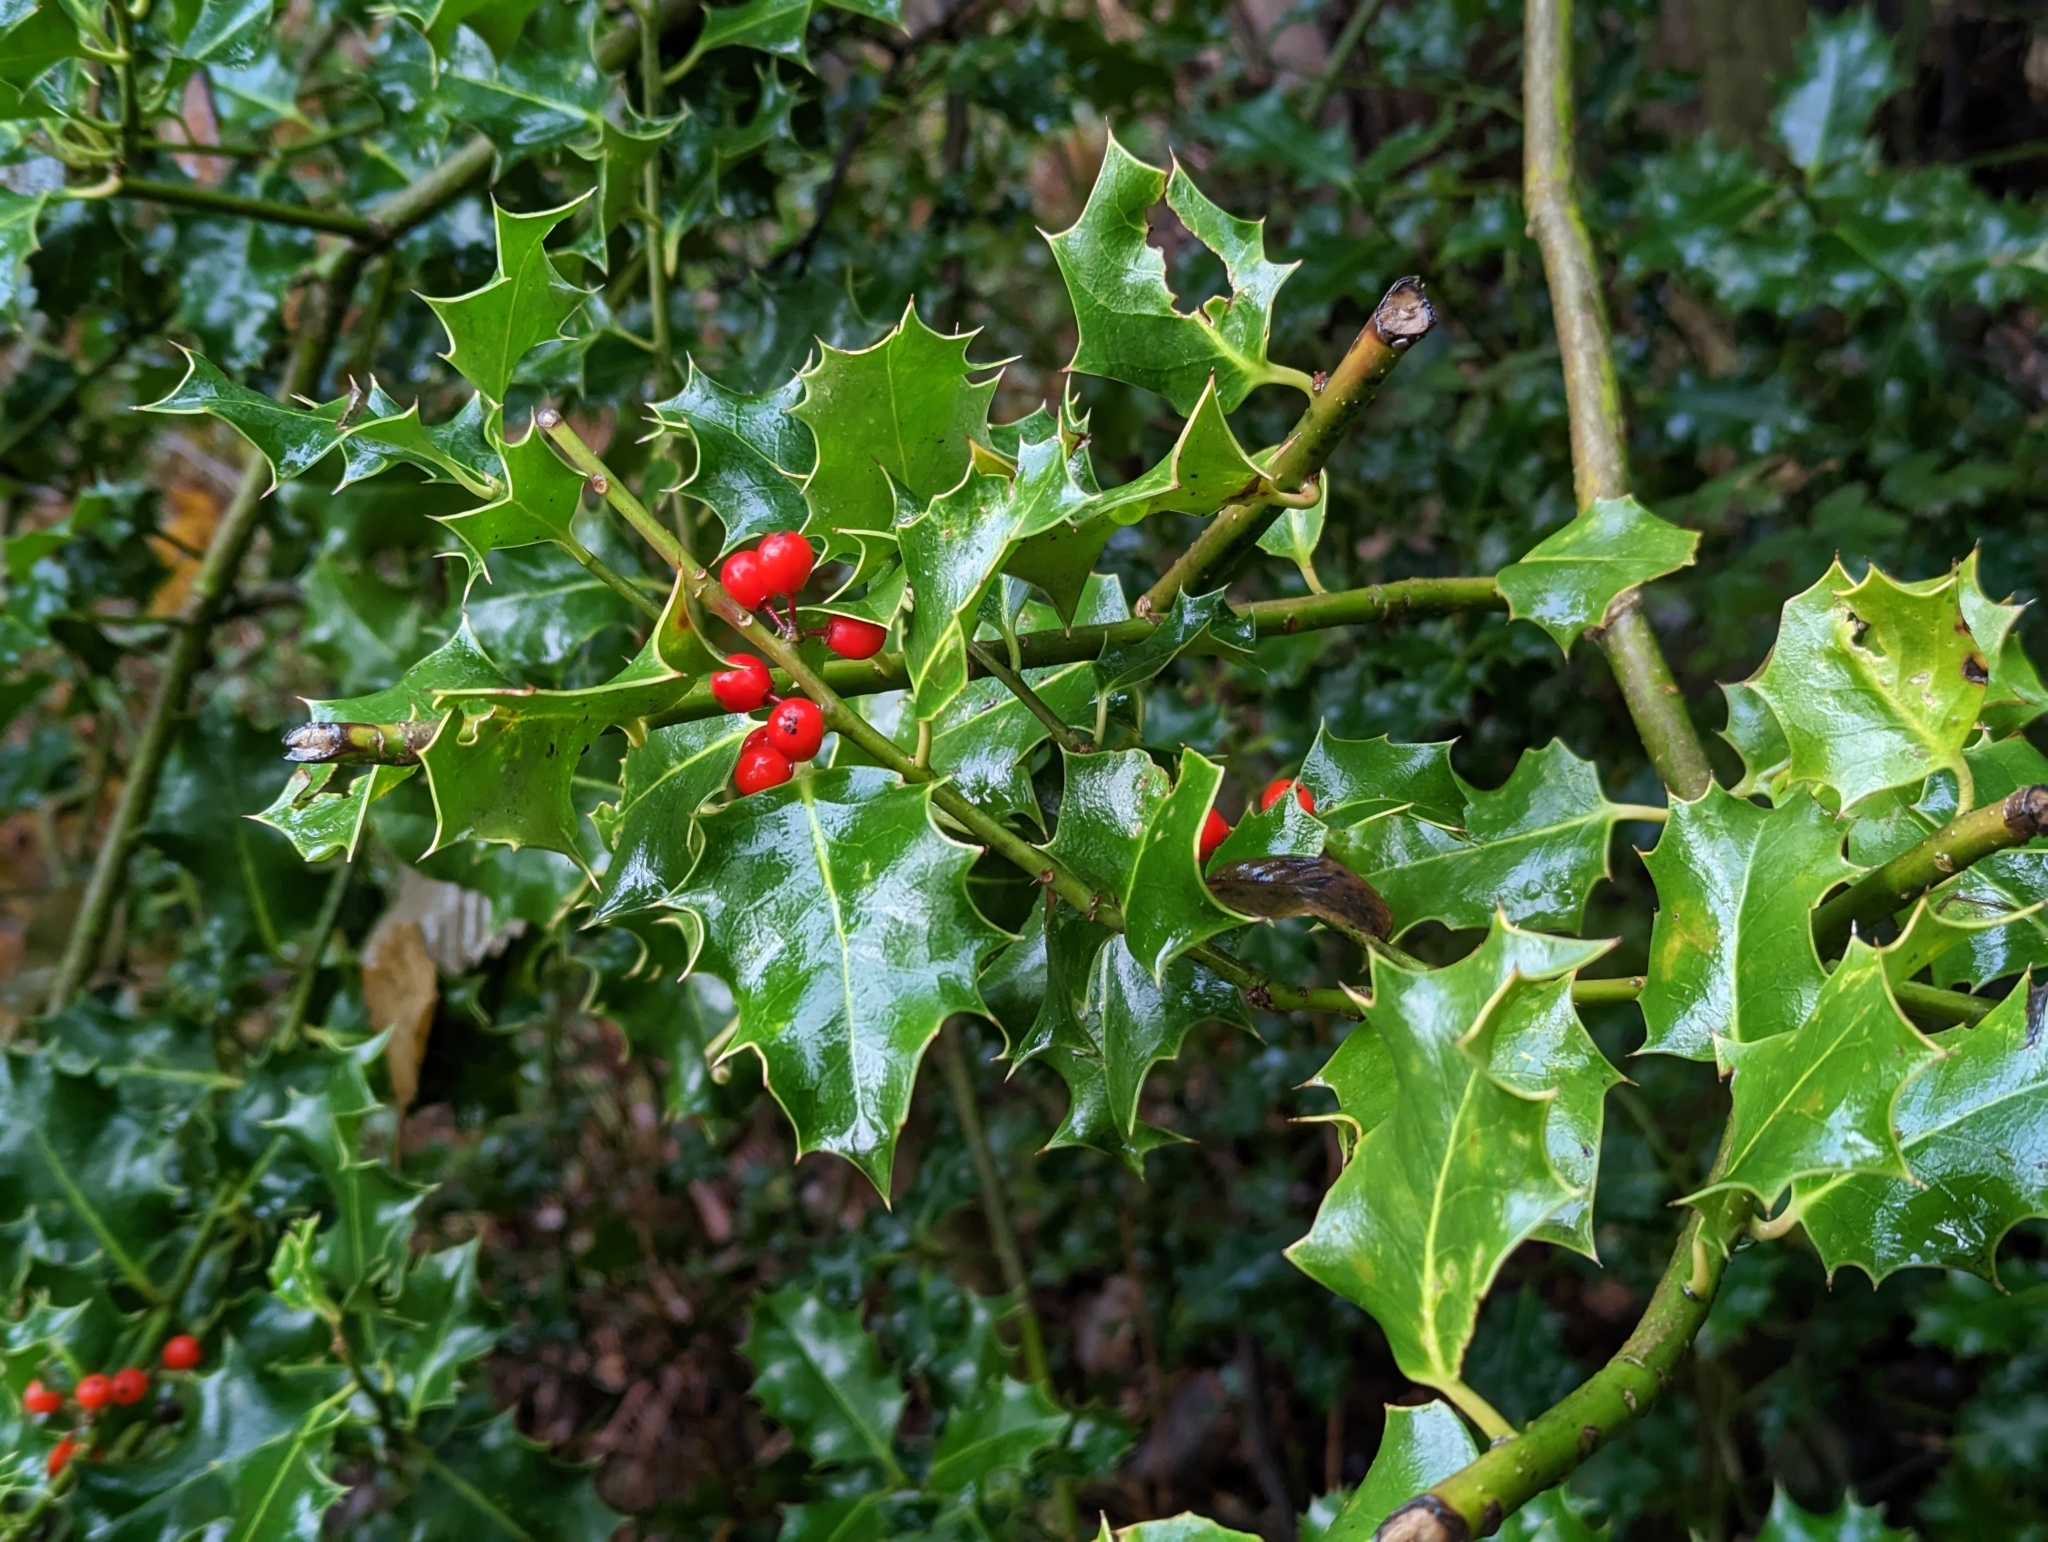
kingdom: Plantae
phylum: Tracheophyta
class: Magnoliopsida
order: Aquifoliales
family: Aquifoliaceae
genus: Ilex
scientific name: Ilex aquifolium
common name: English holly
